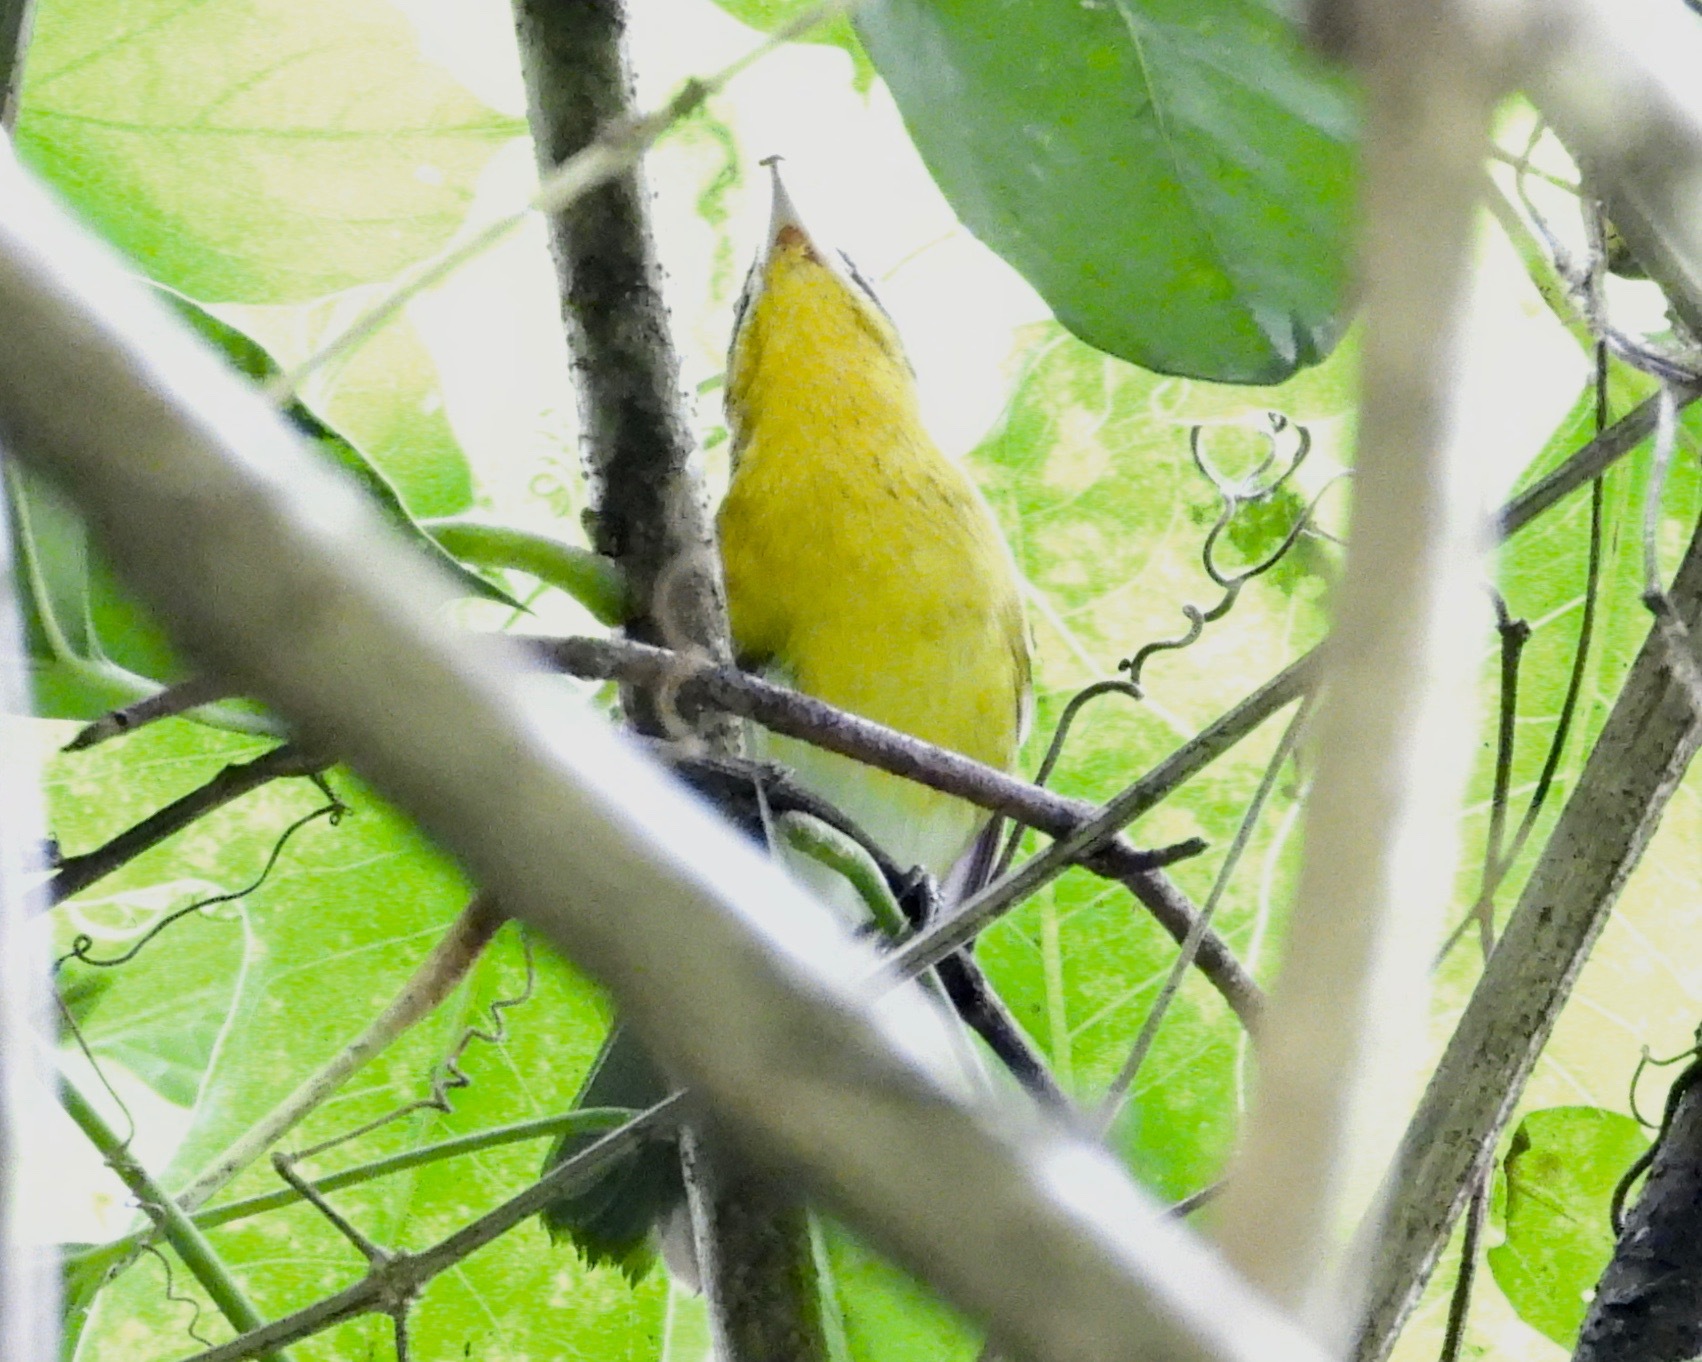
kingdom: Animalia
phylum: Chordata
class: Aves
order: Passeriformes
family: Vireonidae
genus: Vireo
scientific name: Vireo flavifrons
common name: Yellow-throated vireo
